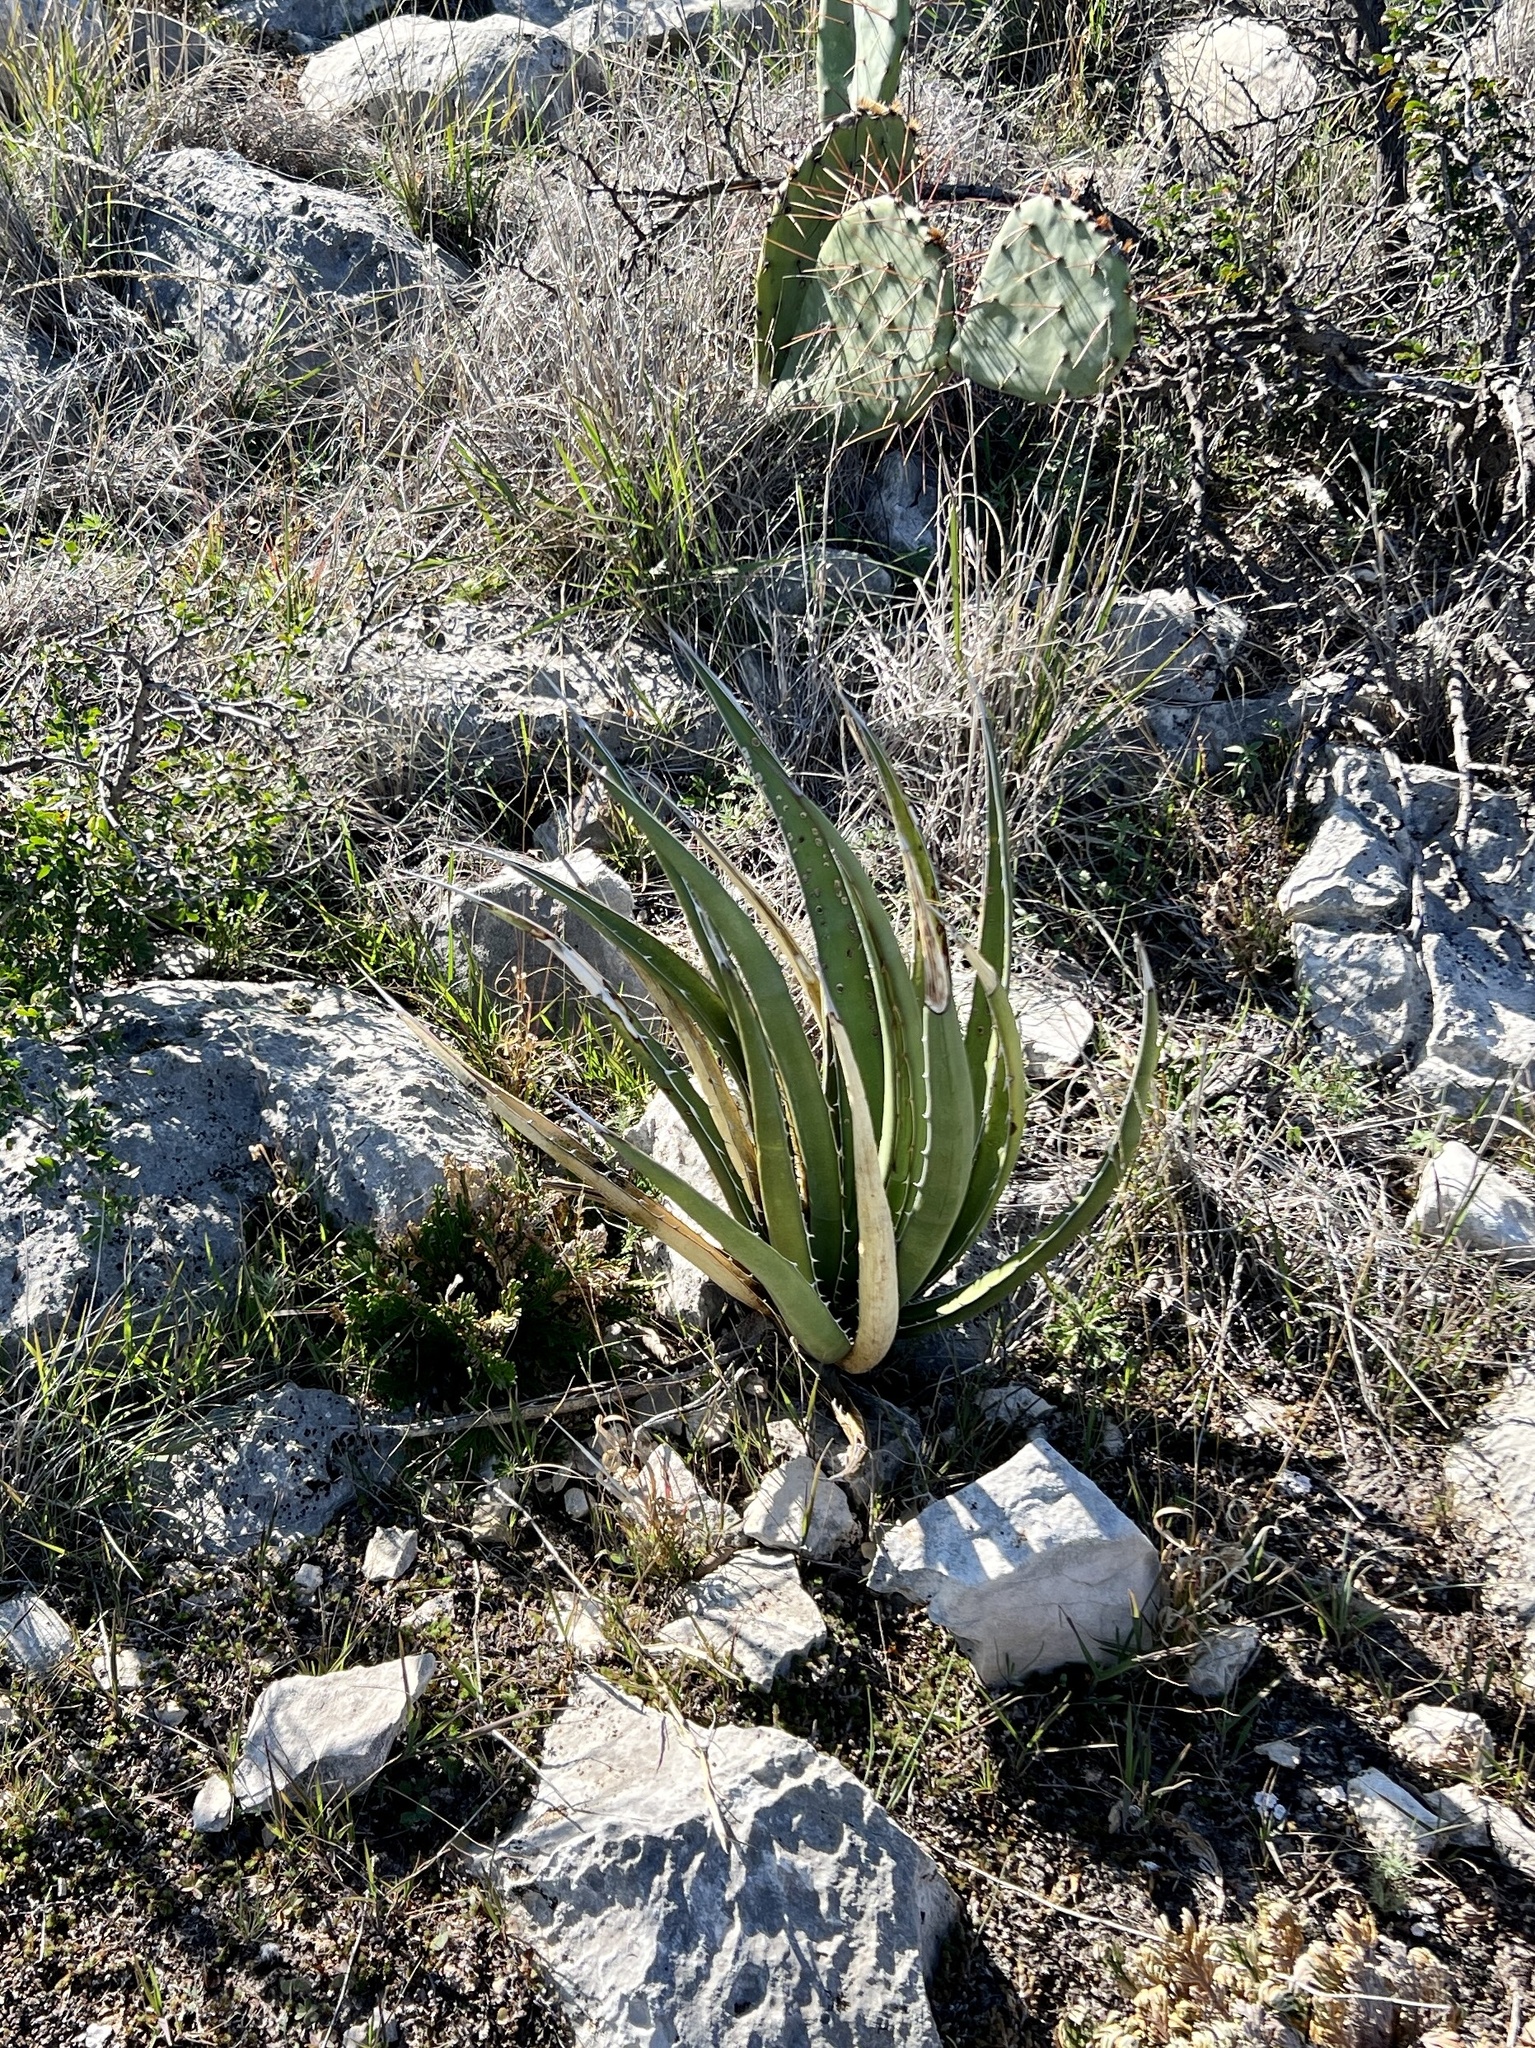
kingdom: Plantae
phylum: Tracheophyta
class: Liliopsida
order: Asparagales
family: Asparagaceae
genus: Agave
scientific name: Agave lechuguilla
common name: Lecheguilla agave
